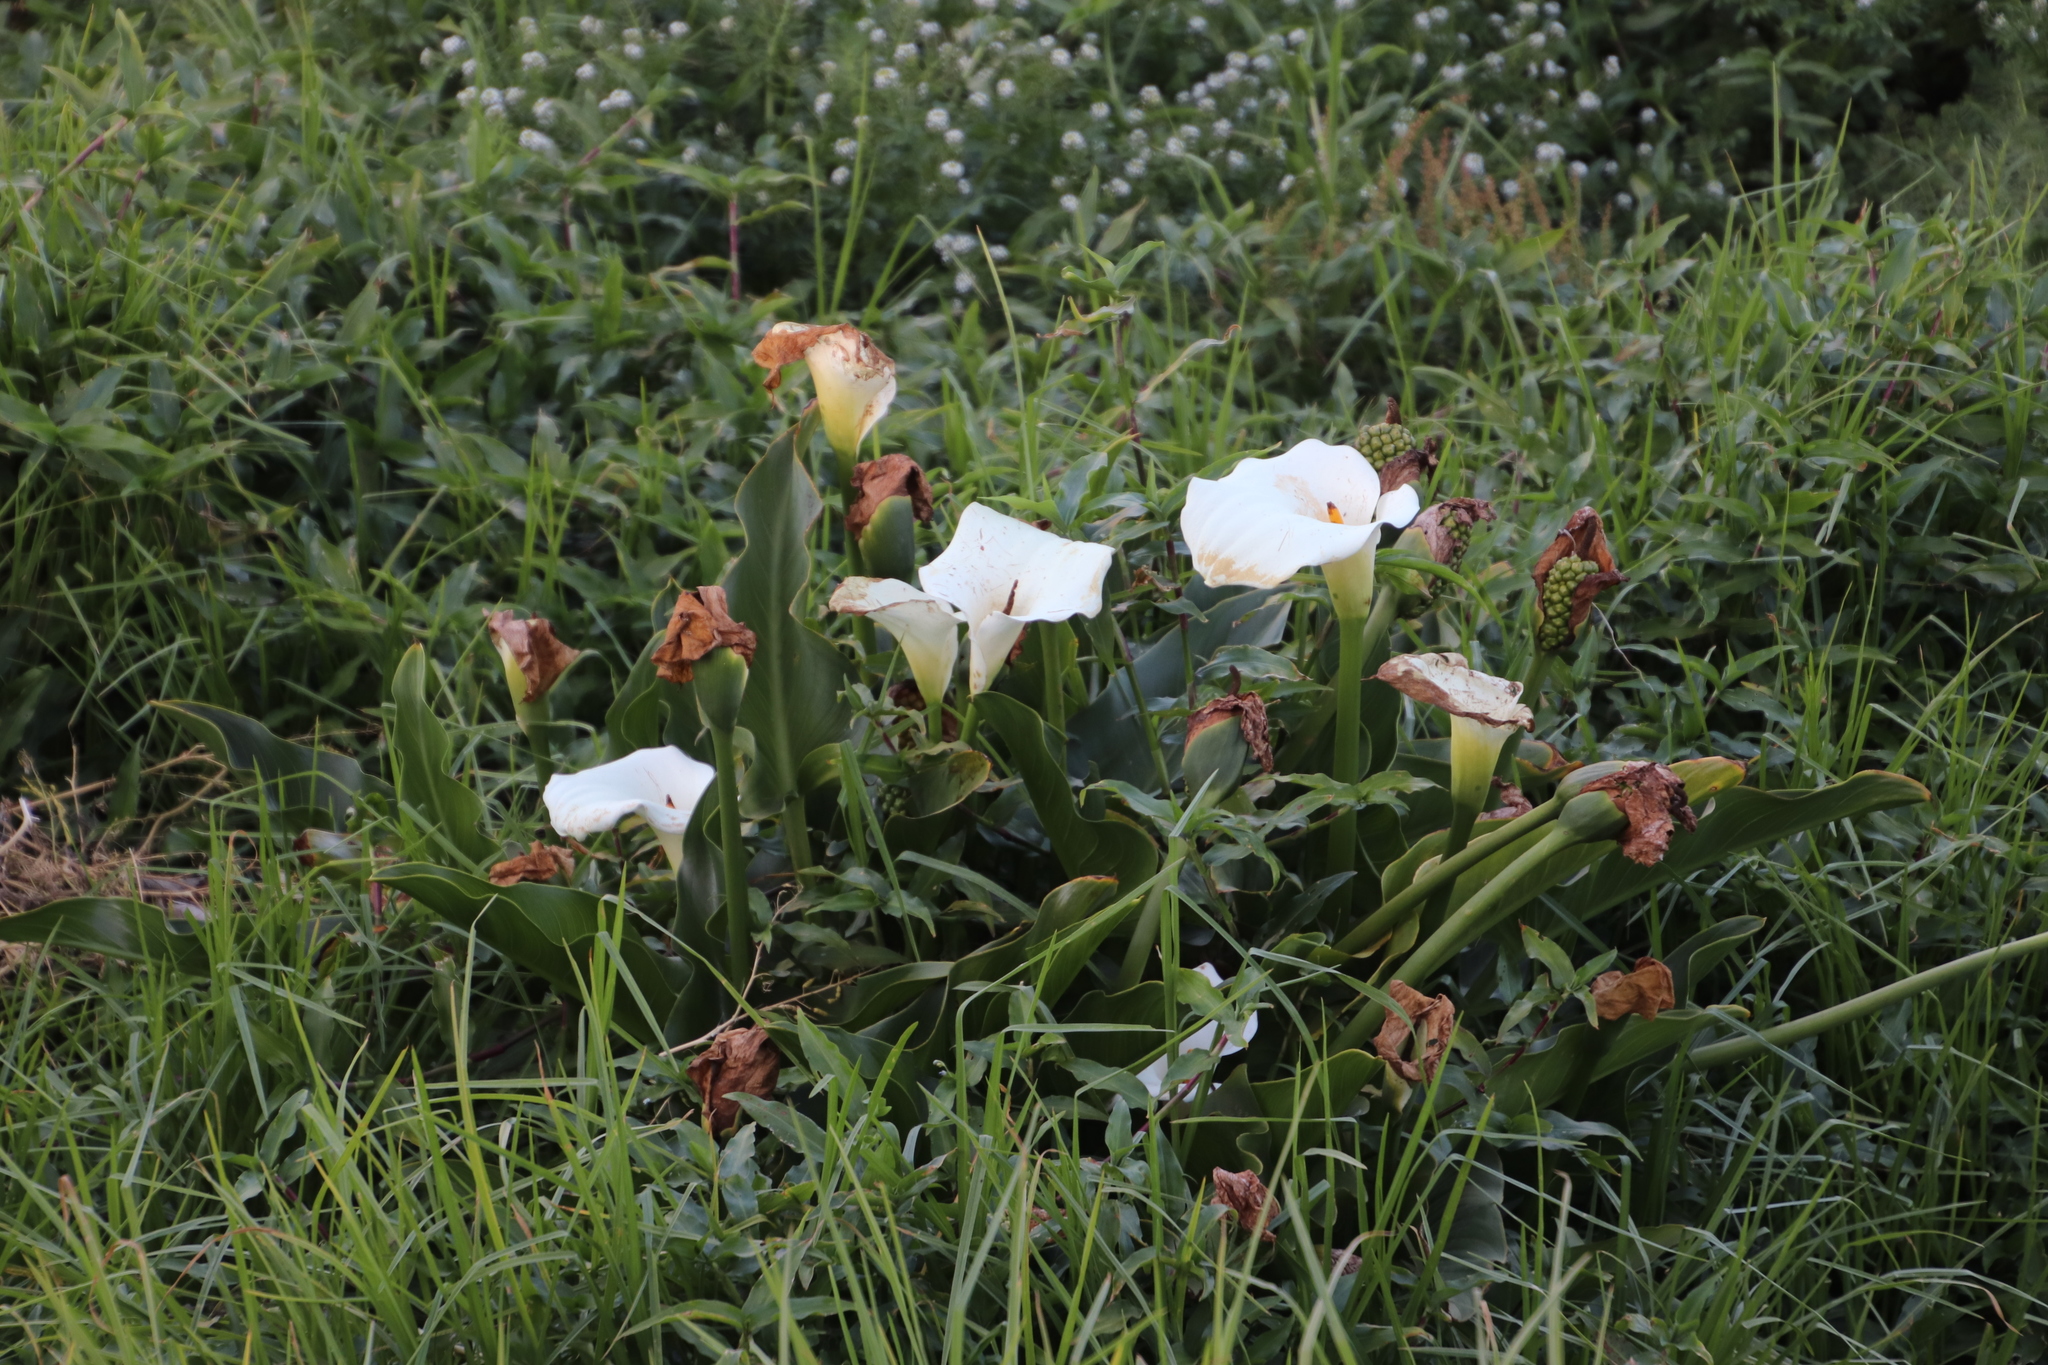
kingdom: Plantae
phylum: Tracheophyta
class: Liliopsida
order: Alismatales
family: Araceae
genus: Zantedeschia
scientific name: Zantedeschia aethiopica
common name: Altar-lily
